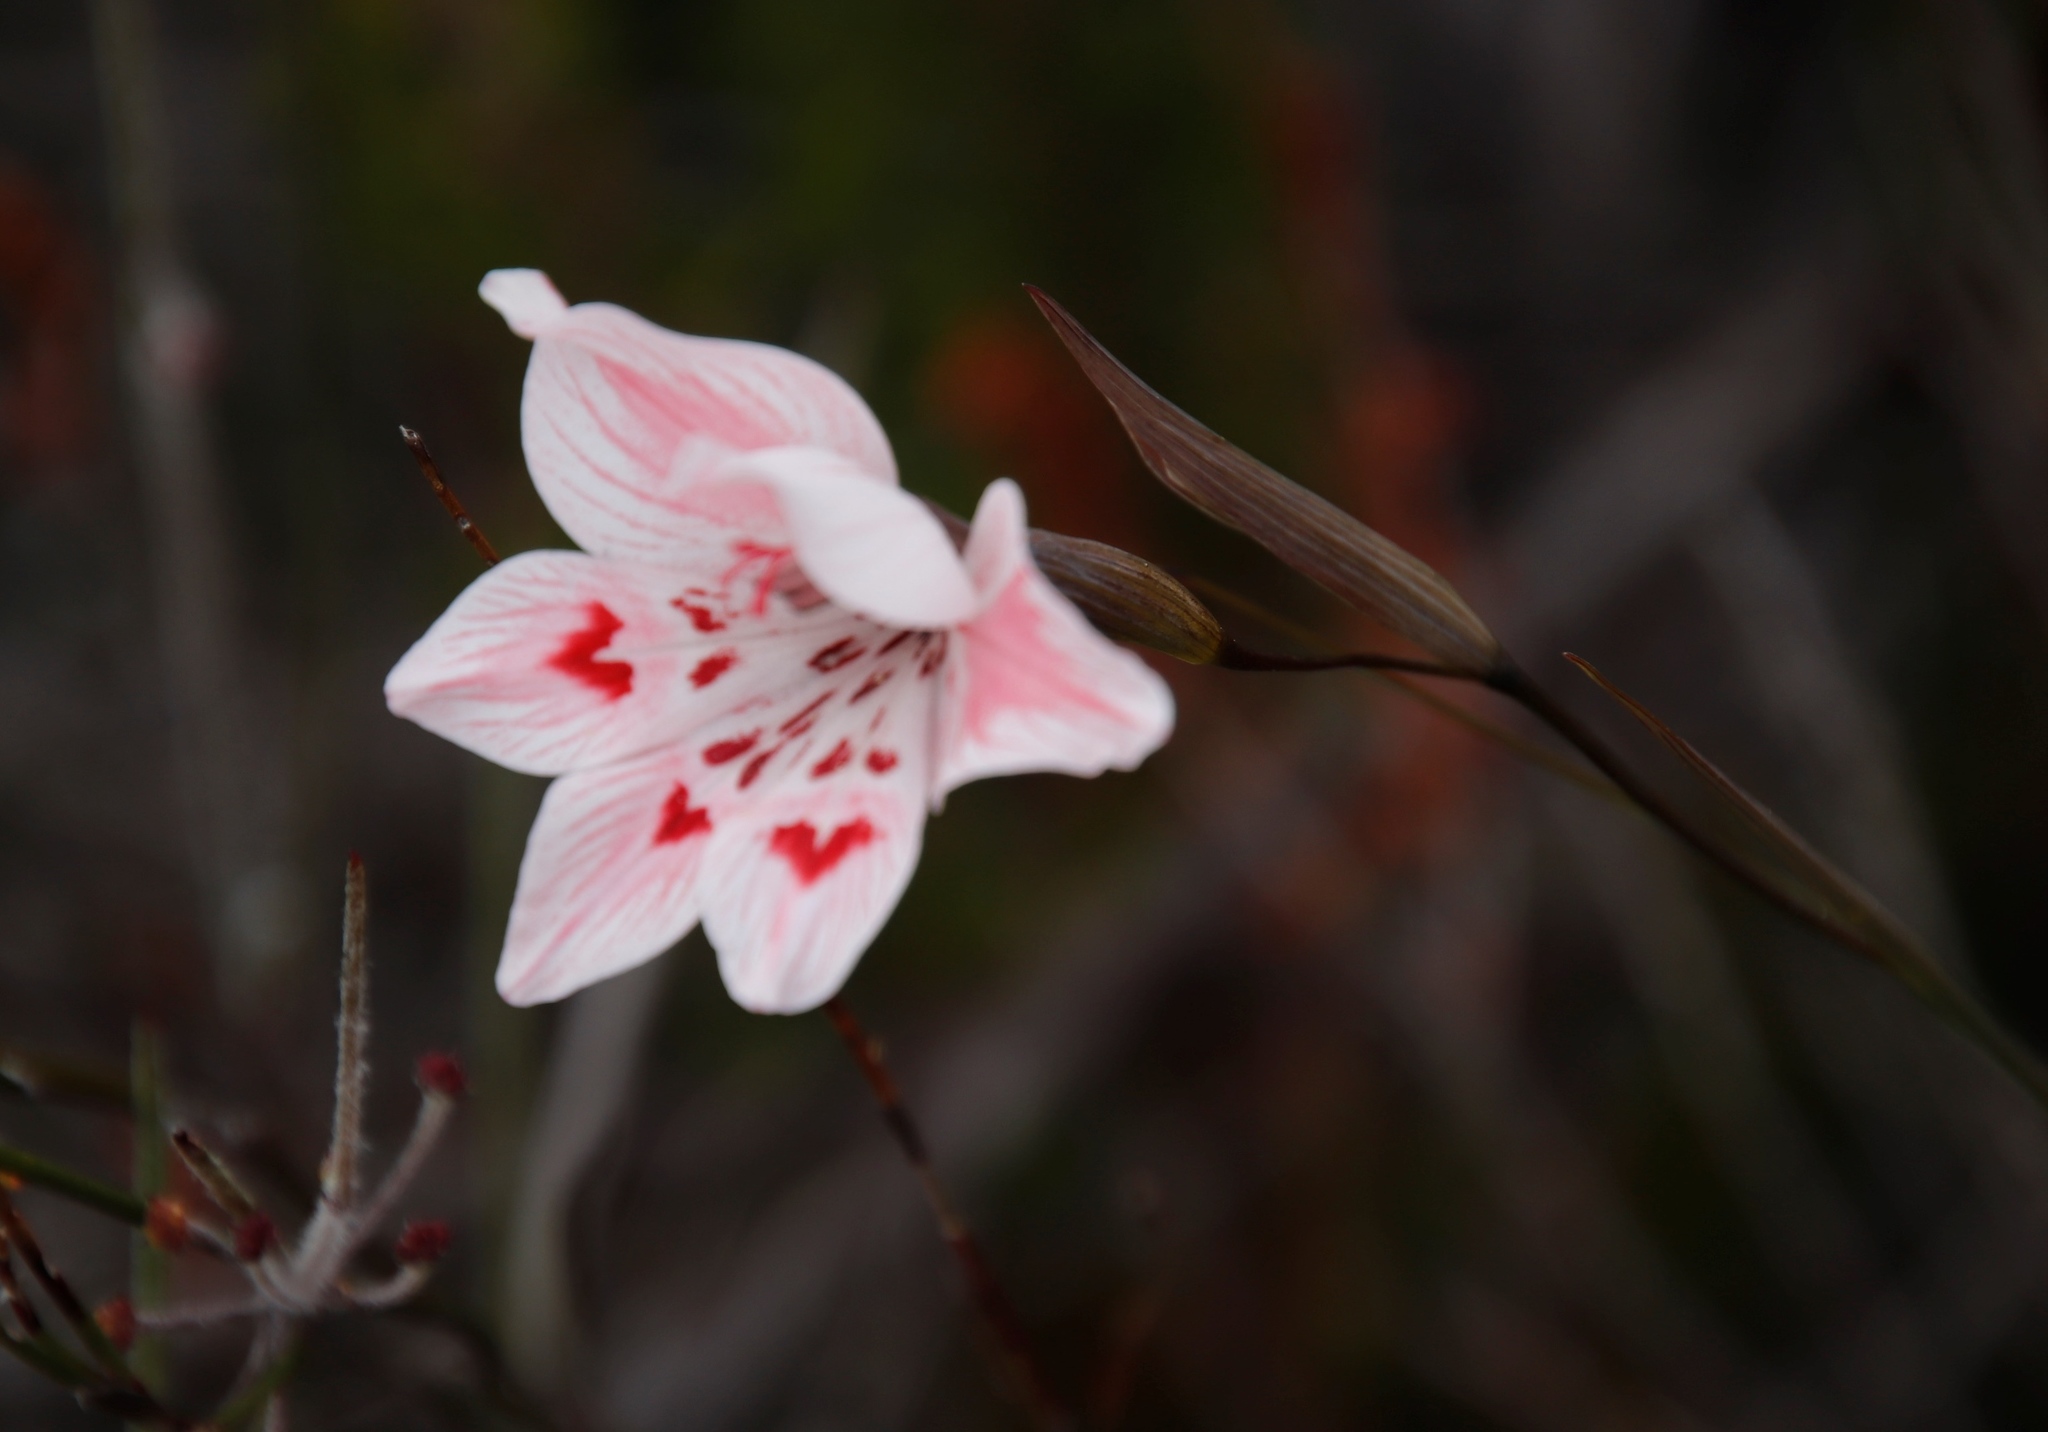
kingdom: Plantae
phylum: Tracheophyta
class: Liliopsida
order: Asparagales
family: Iridaceae
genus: Gladiolus
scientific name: Gladiolus debilis
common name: Painted-lady
